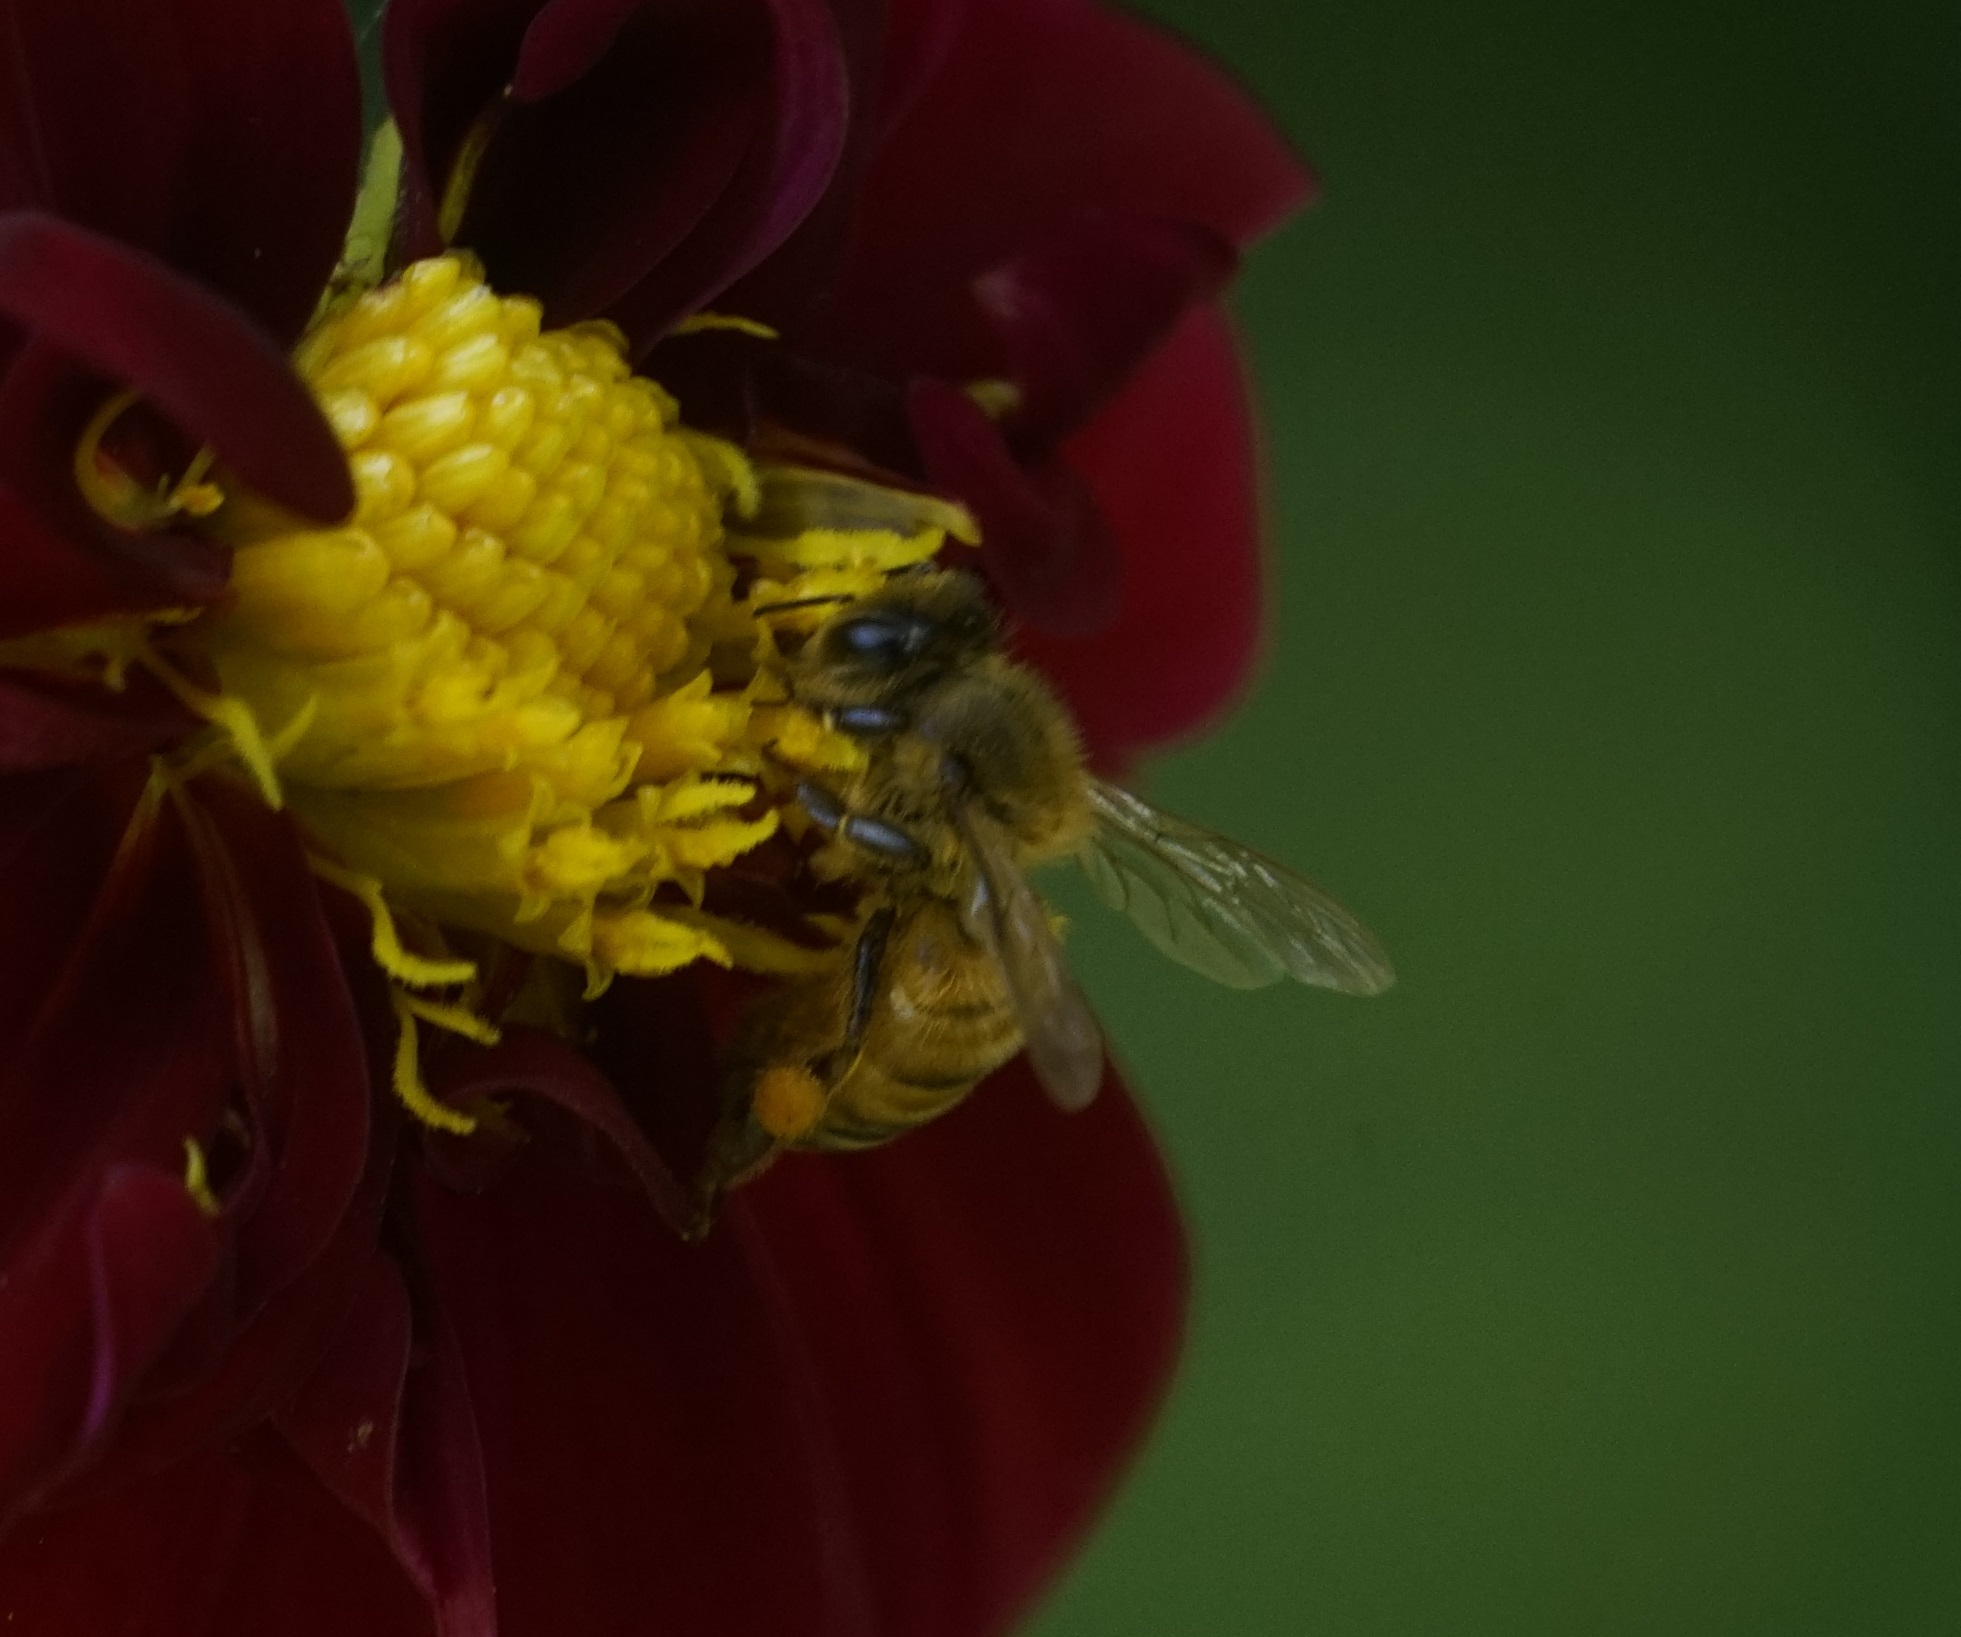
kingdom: Animalia
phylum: Arthropoda
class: Insecta
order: Hymenoptera
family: Apidae
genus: Apis
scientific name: Apis mellifera
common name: Honey bee
